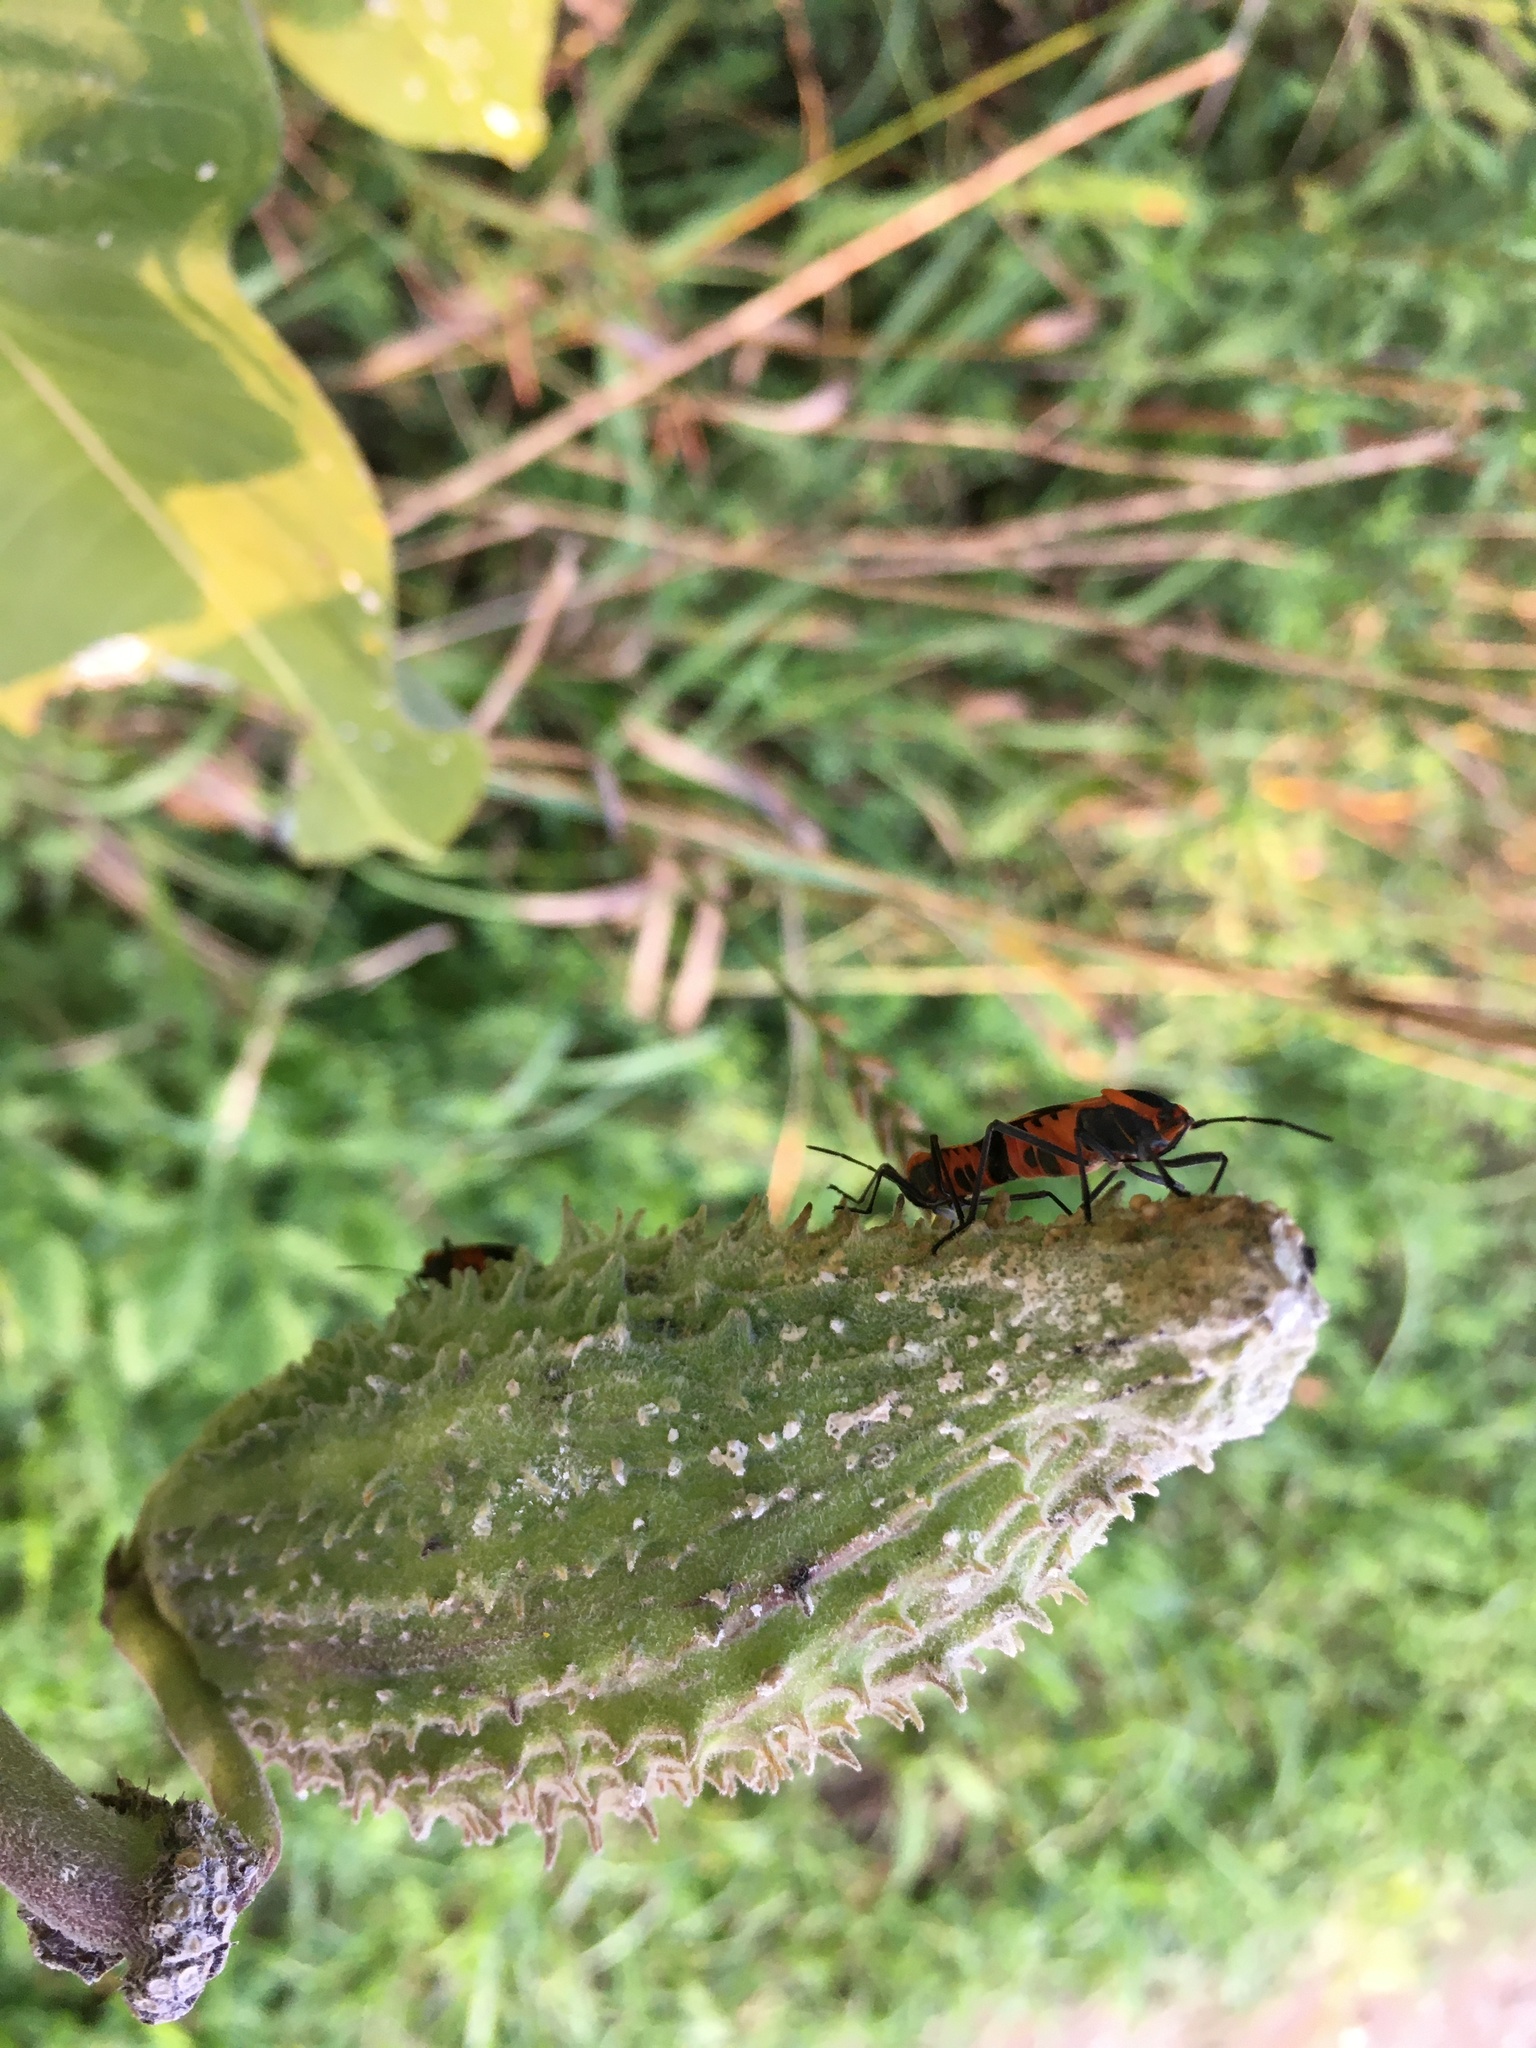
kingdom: Animalia
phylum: Arthropoda
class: Insecta
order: Hemiptera
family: Lygaeidae
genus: Oncopeltus
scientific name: Oncopeltus fasciatus
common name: Large milkweed bug
